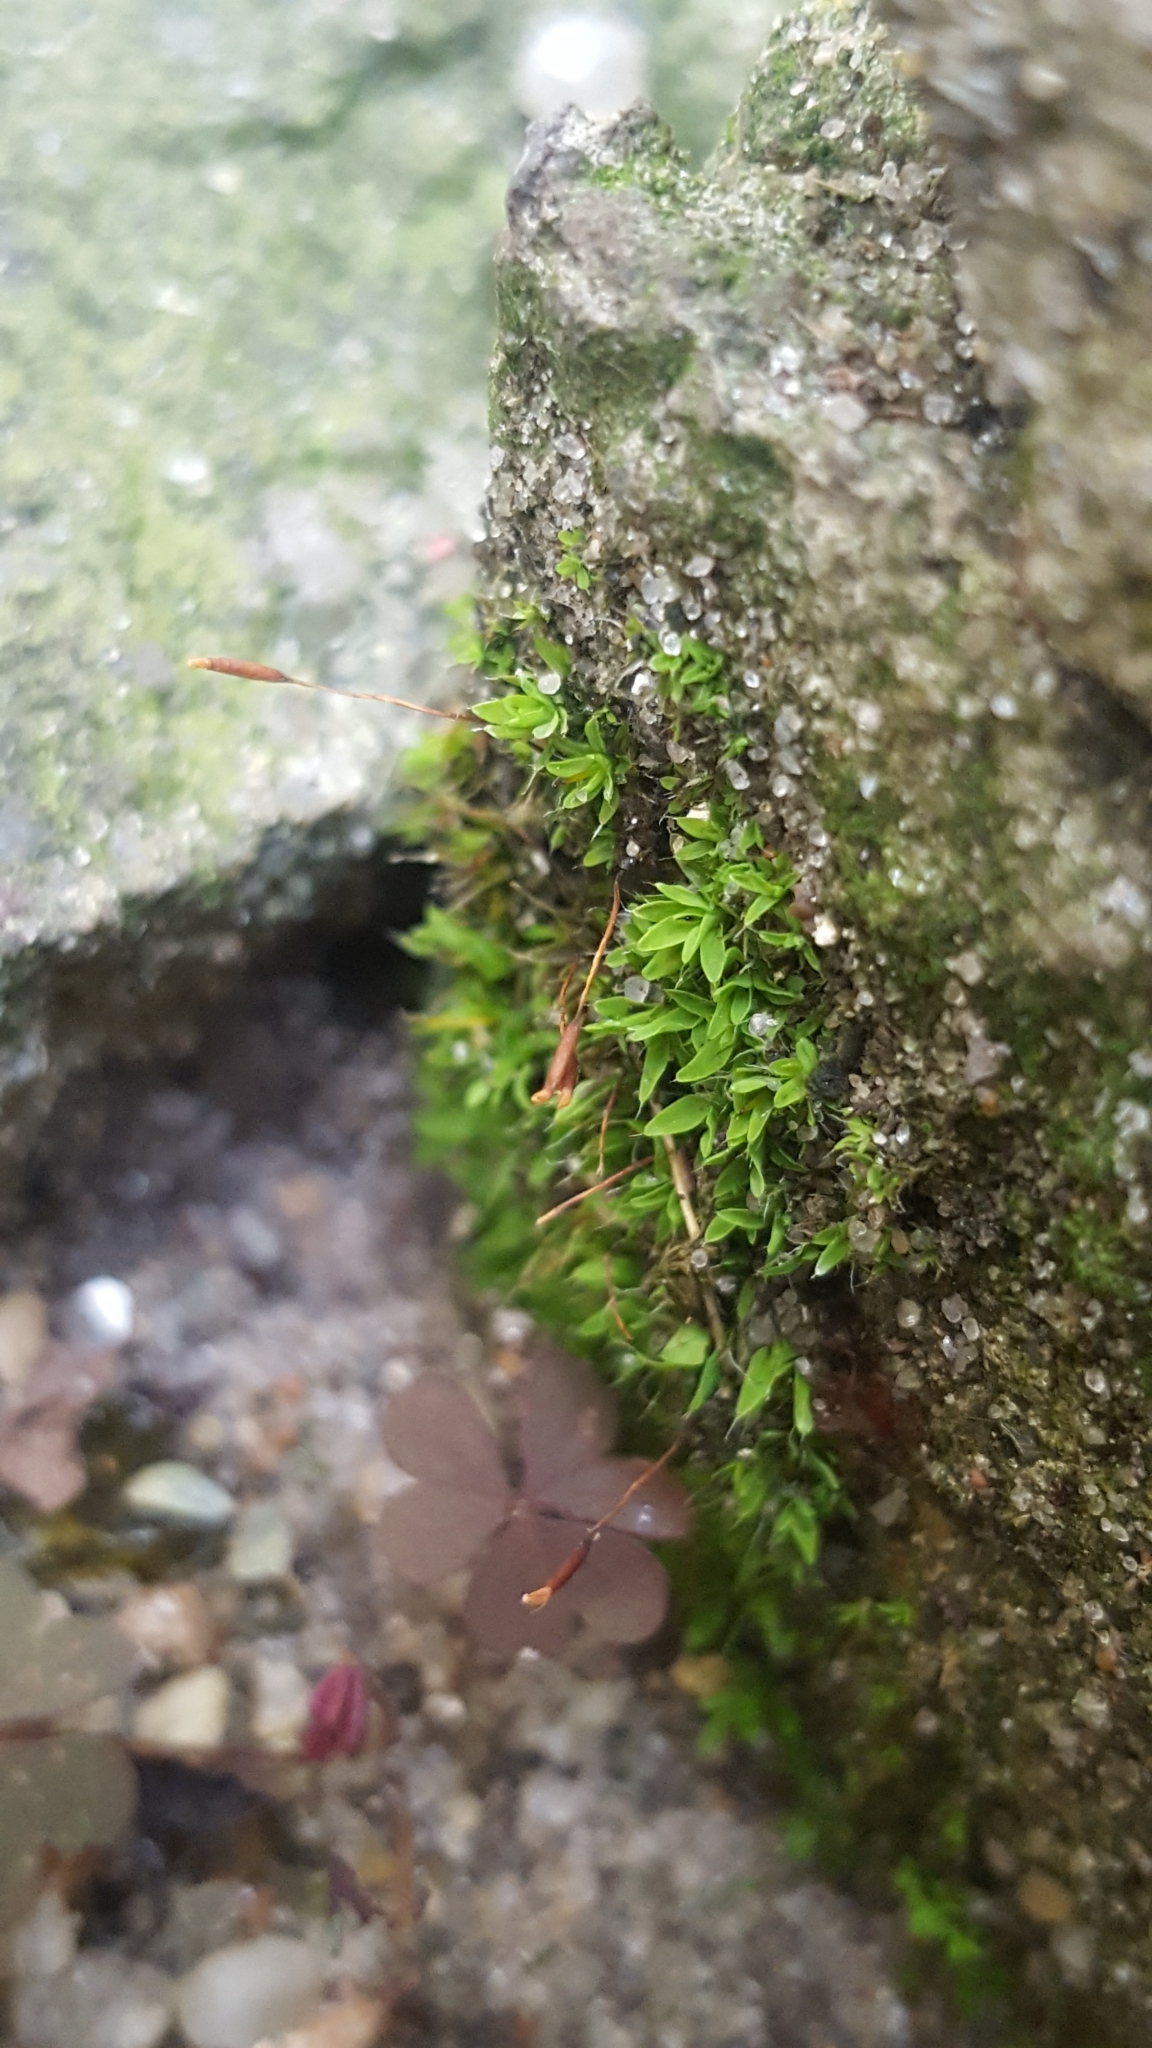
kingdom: Plantae
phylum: Bryophyta
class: Bryopsida
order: Pottiales
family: Pottiaceae
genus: Tortula
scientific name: Tortula muralis
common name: Wall screw-moss
